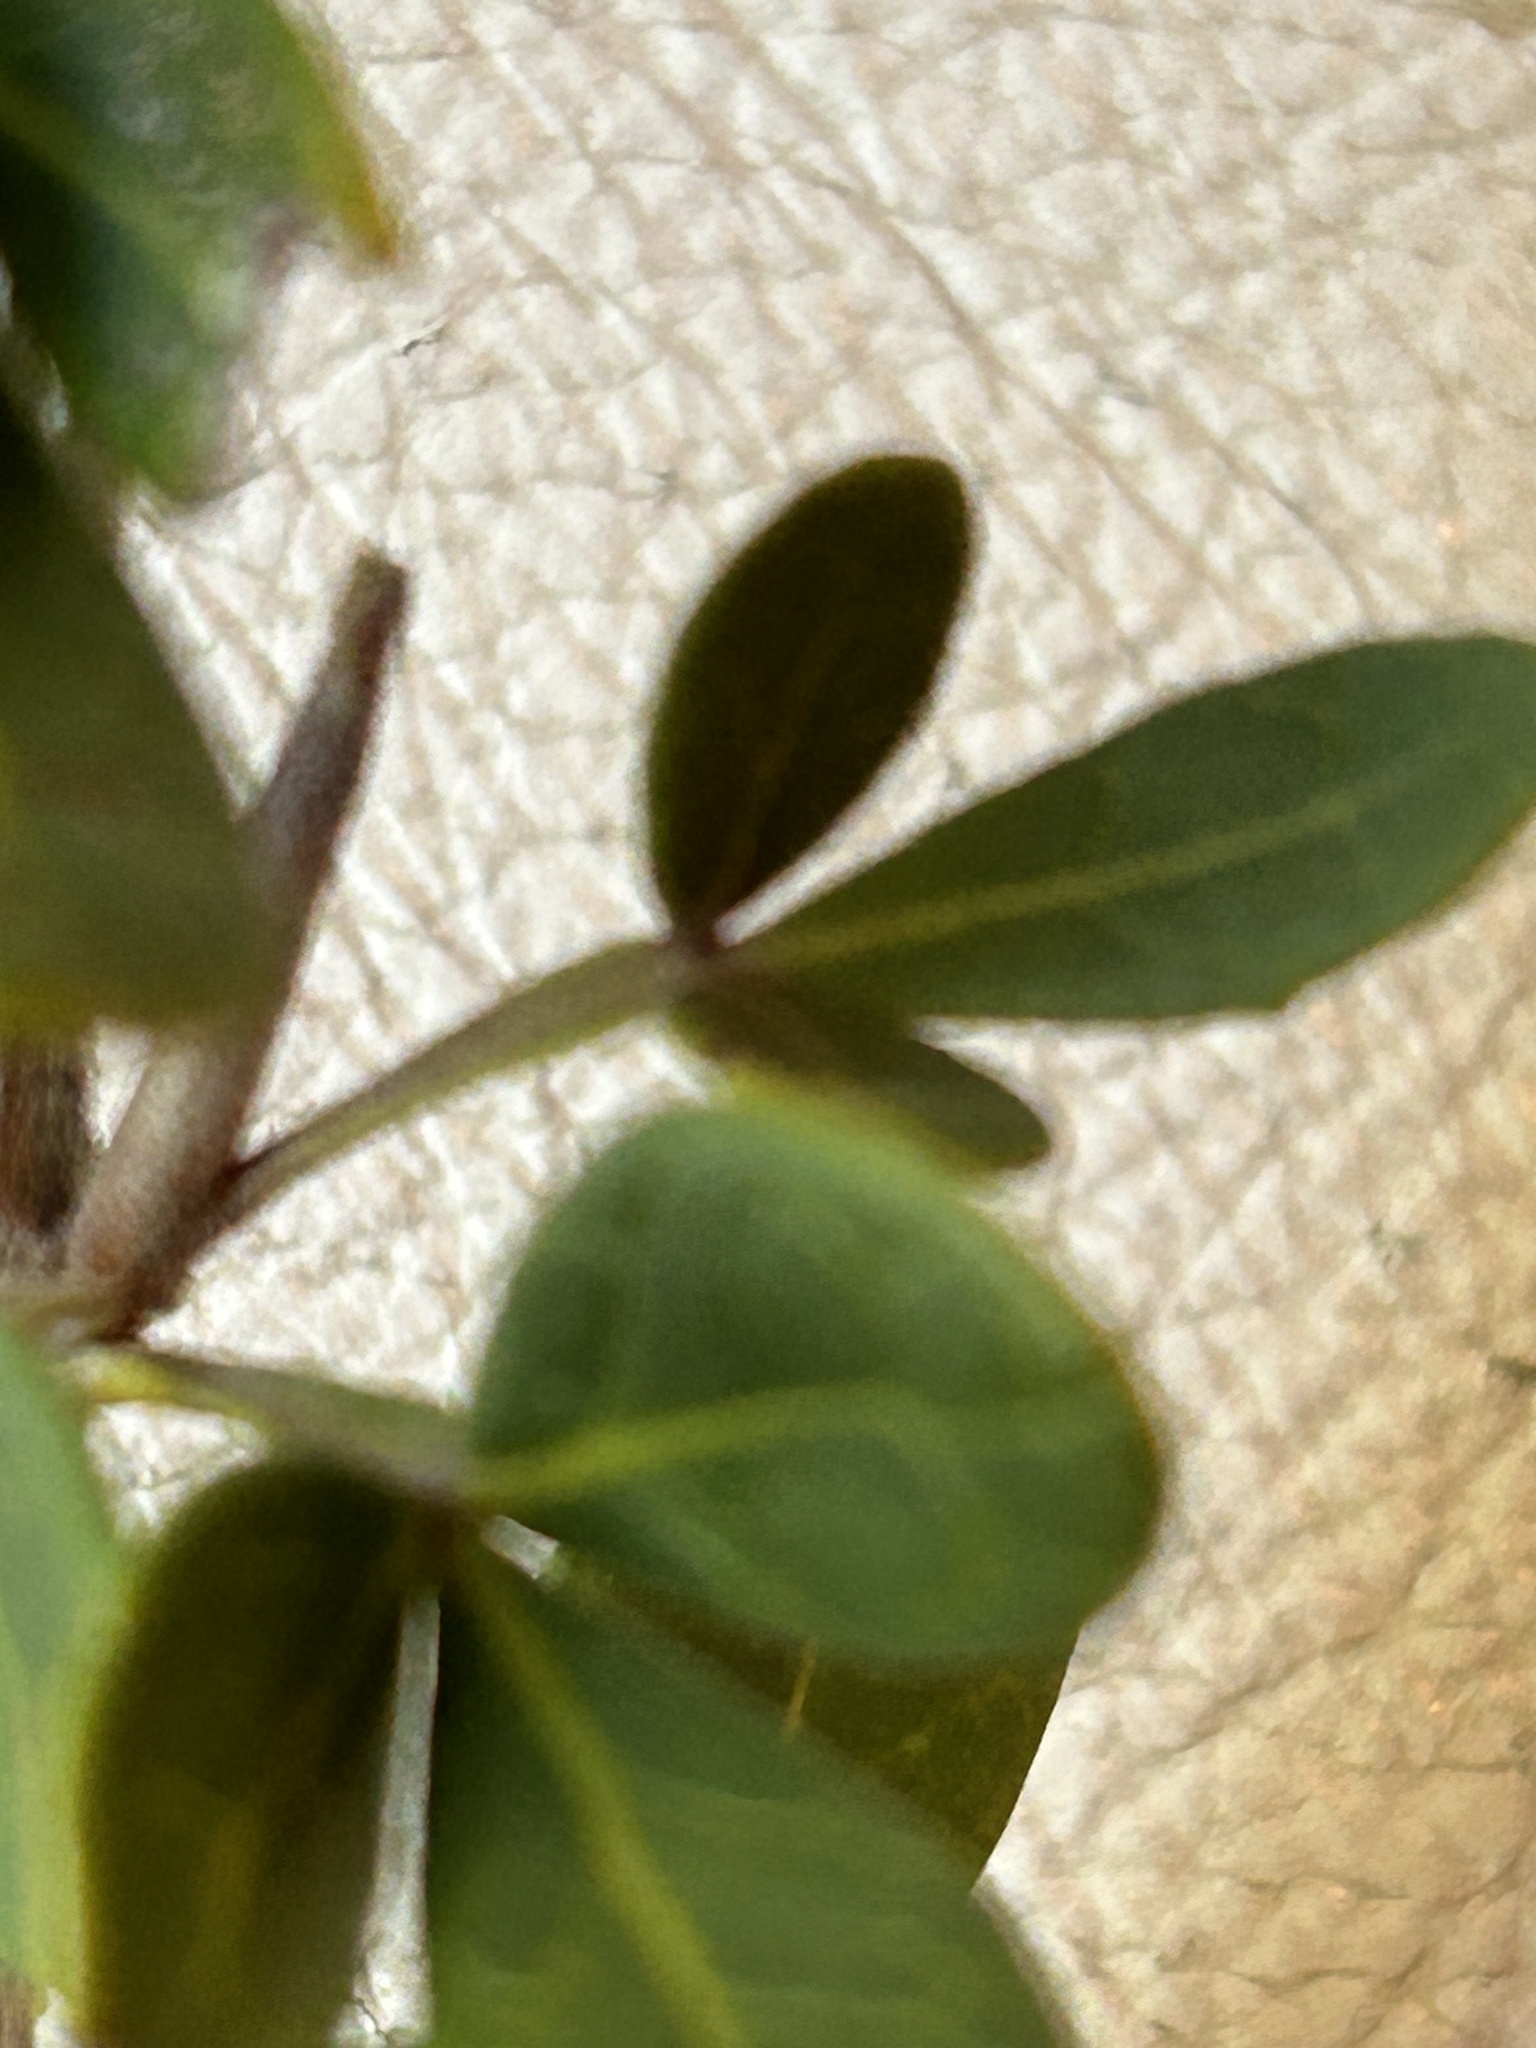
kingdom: Plantae
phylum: Tracheophyta
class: Magnoliopsida
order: Sapindales
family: Anacardiaceae
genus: Searsia
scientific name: Searsia pterota
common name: Winged currant
